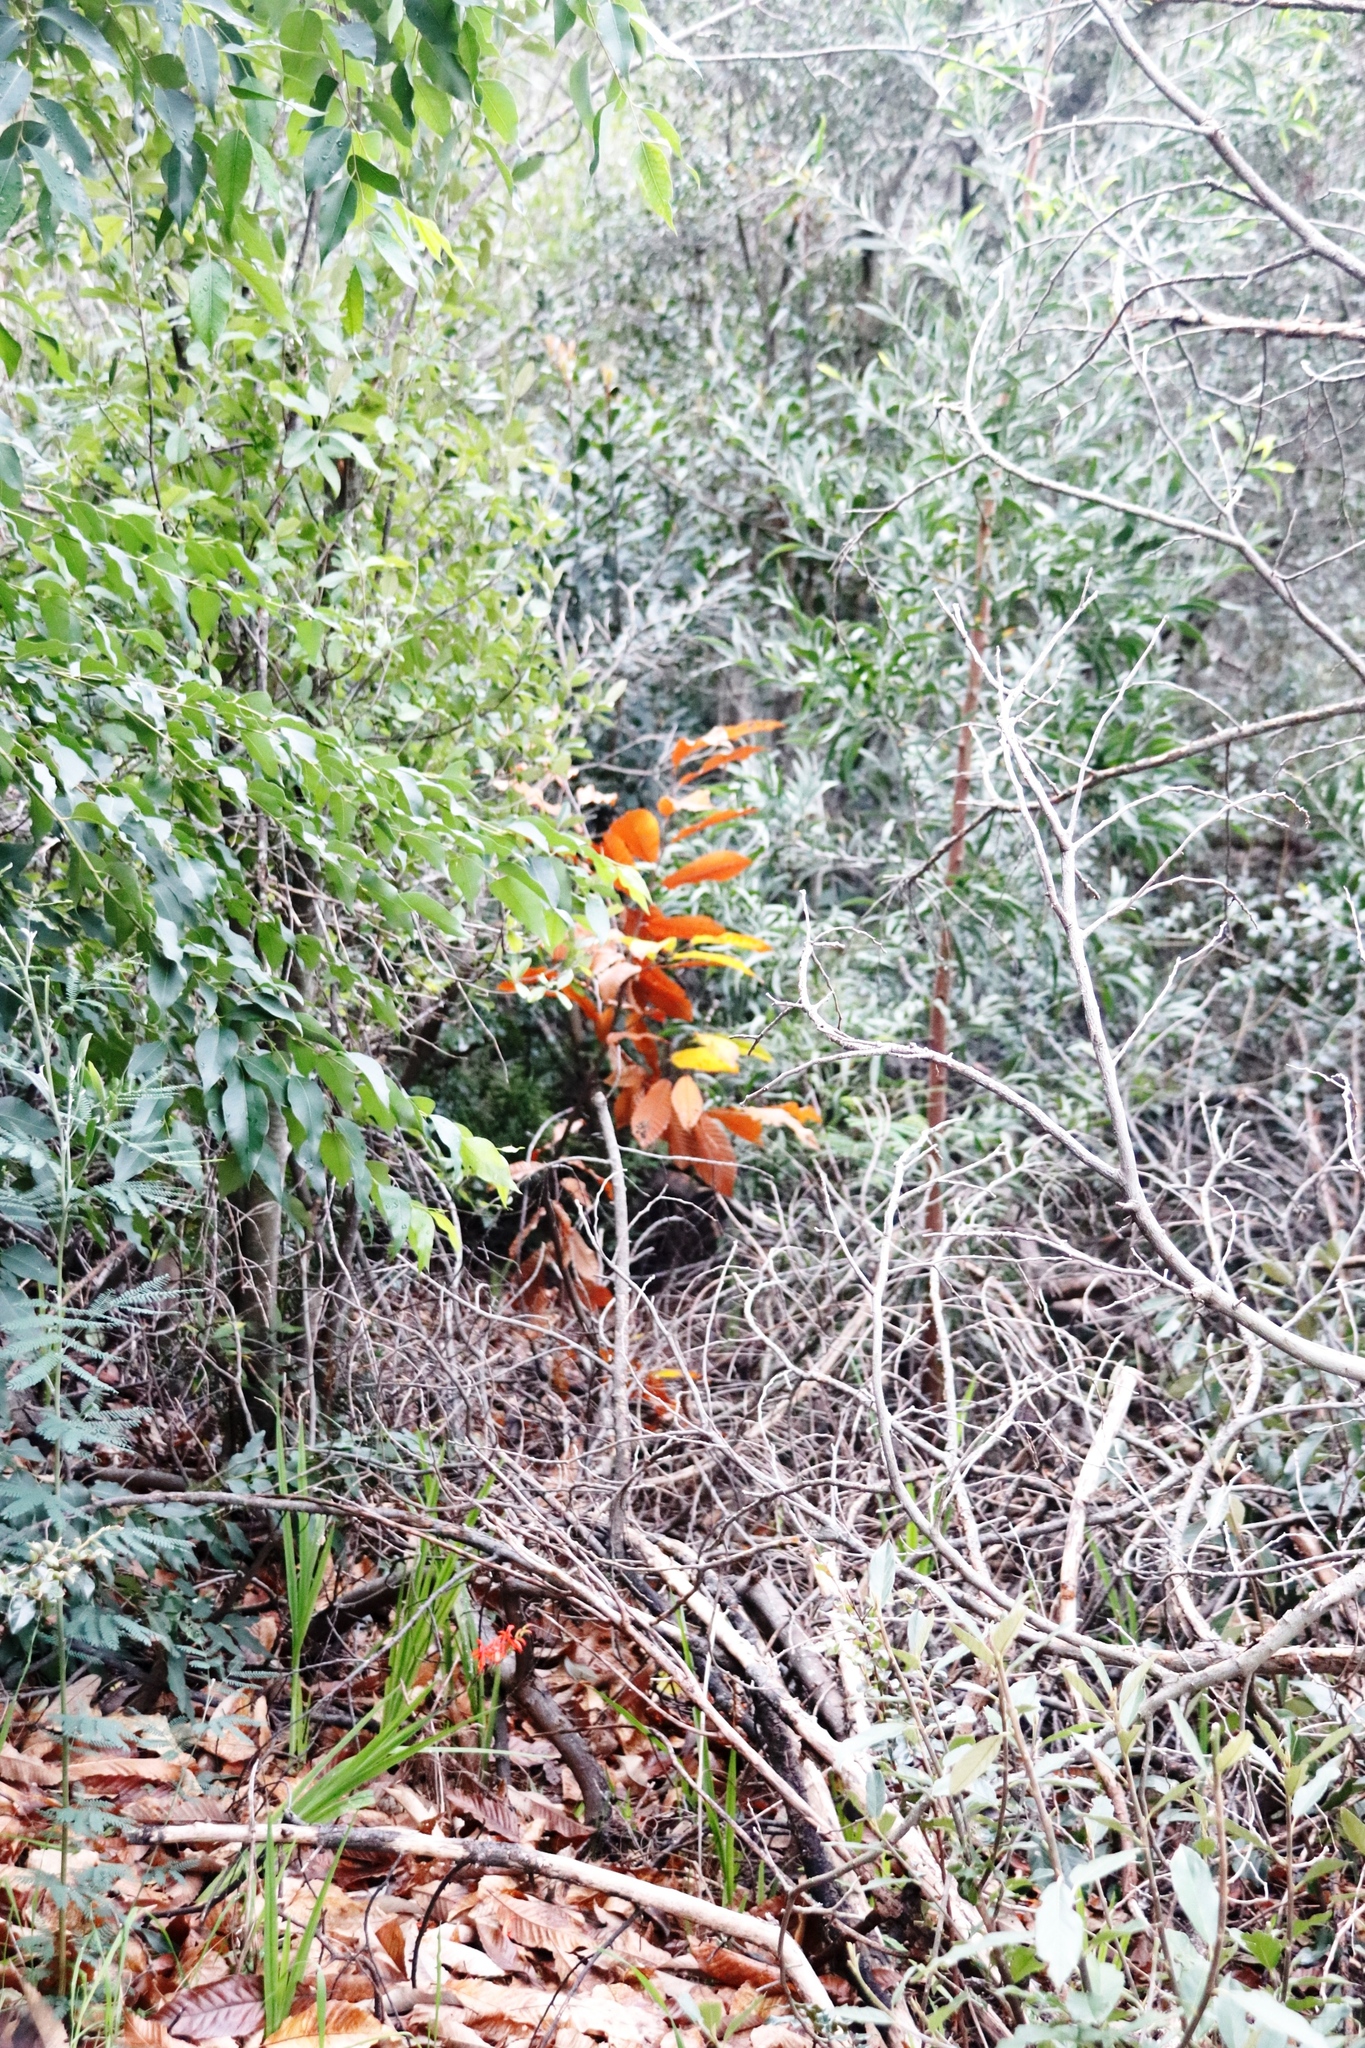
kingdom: Plantae
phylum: Tracheophyta
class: Magnoliopsida
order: Fagales
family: Fagaceae
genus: Castanea
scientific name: Castanea sativa
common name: Sweet chestnut
